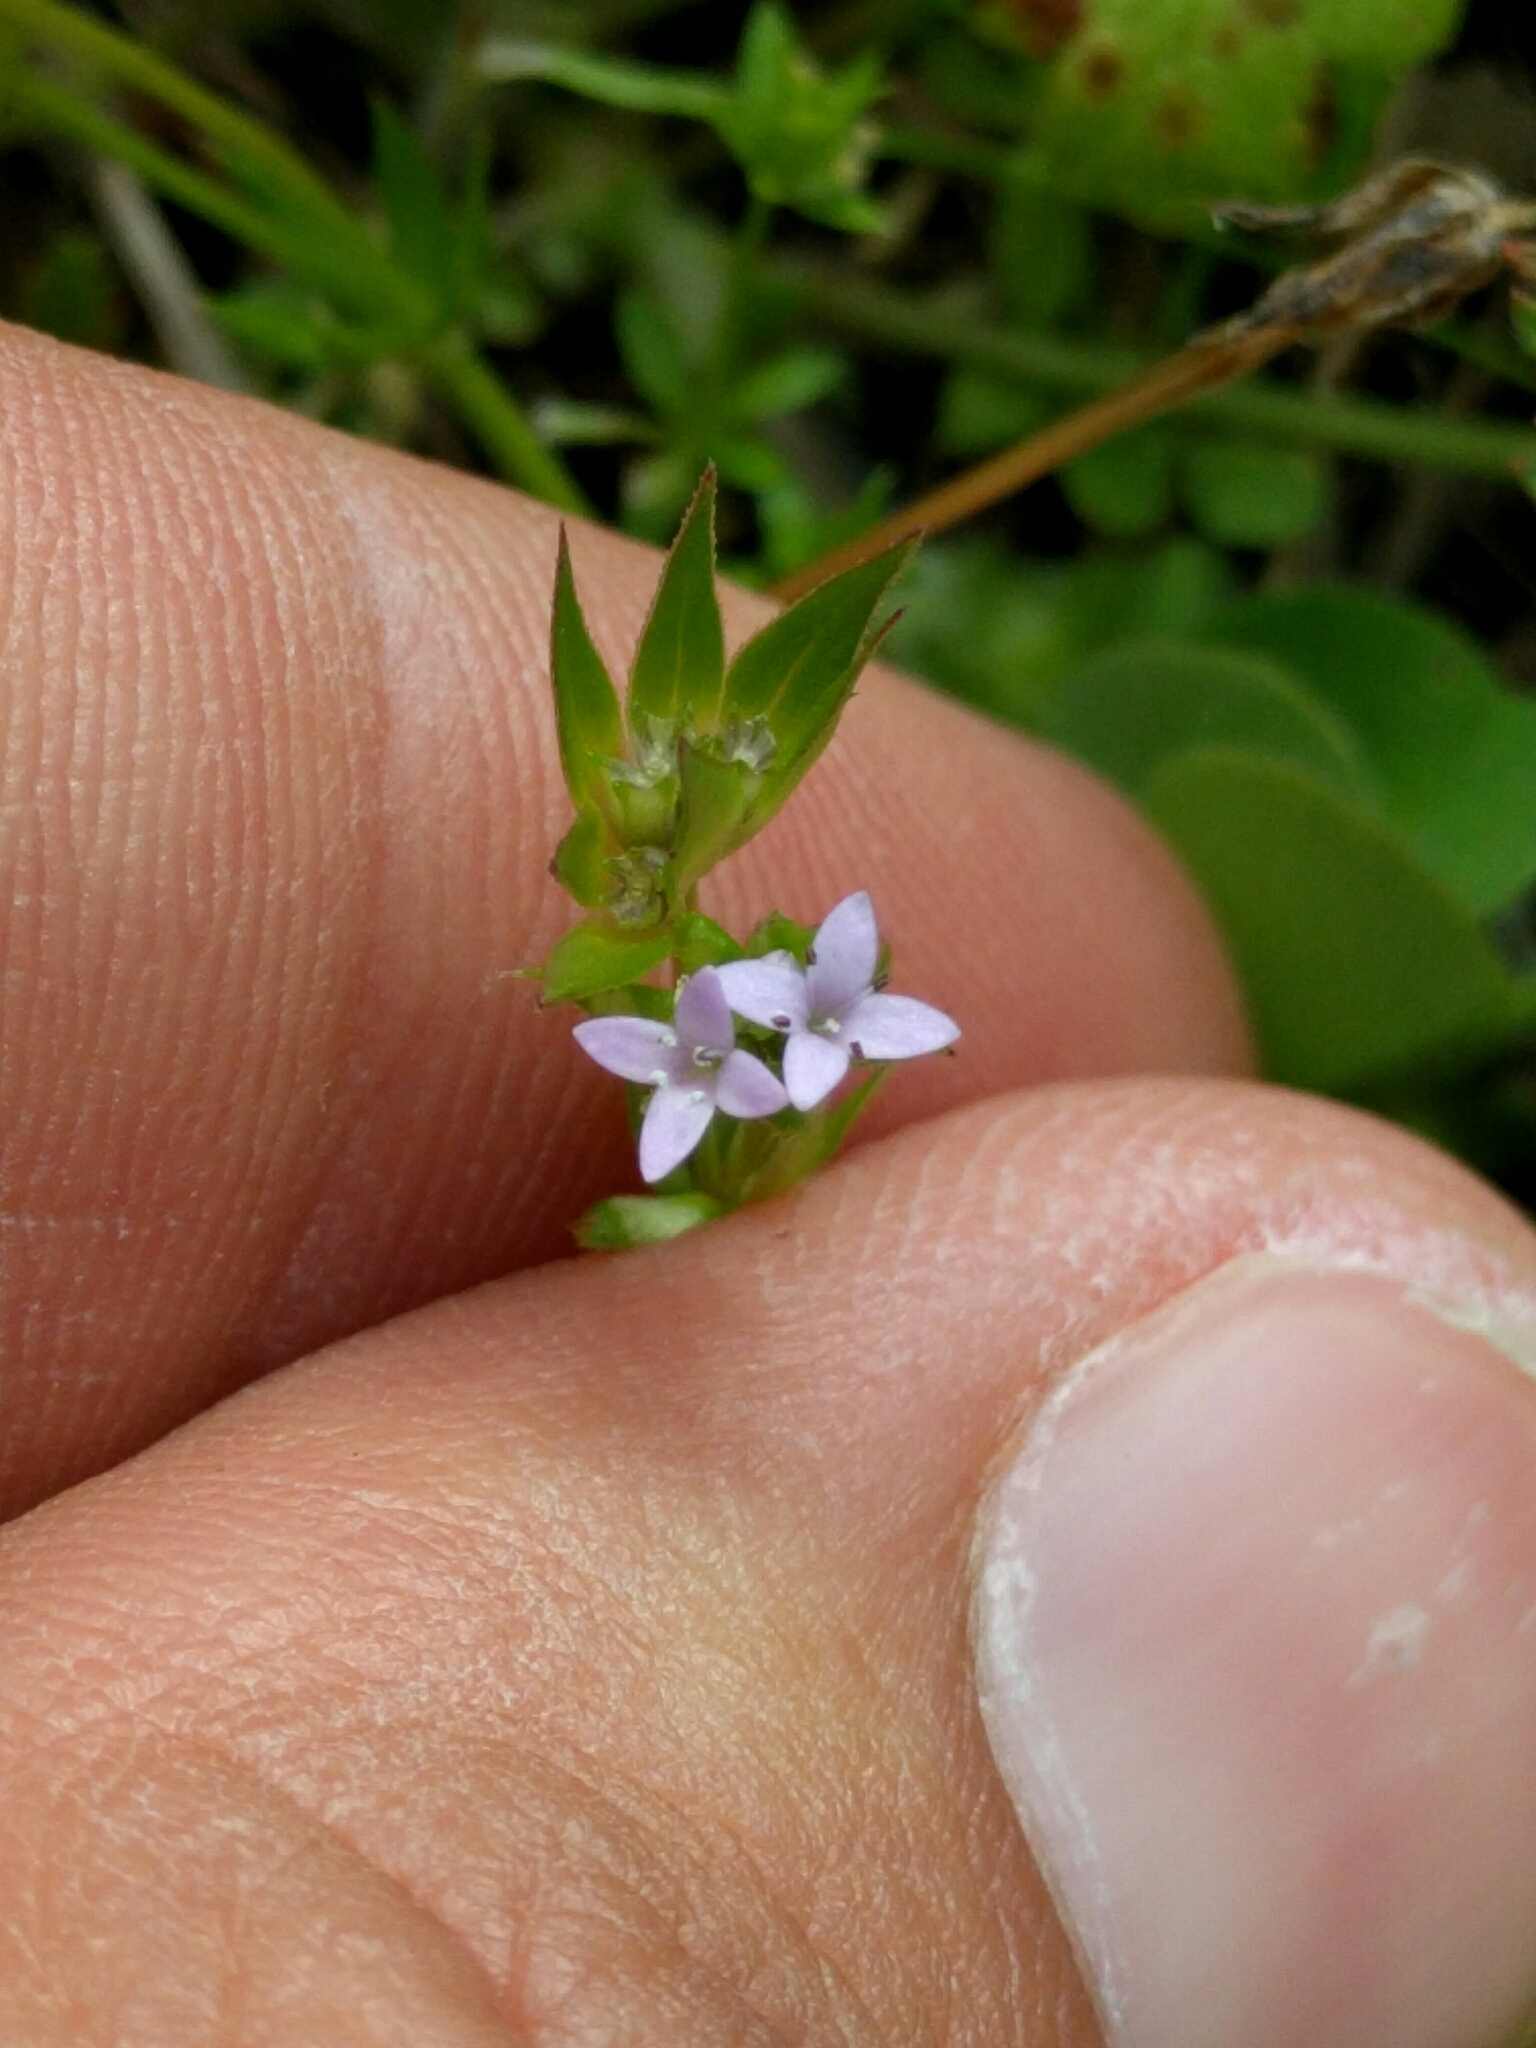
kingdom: Plantae
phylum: Tracheophyta
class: Magnoliopsida
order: Gentianales
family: Rubiaceae
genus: Sherardia
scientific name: Sherardia arvensis
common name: Field madder
